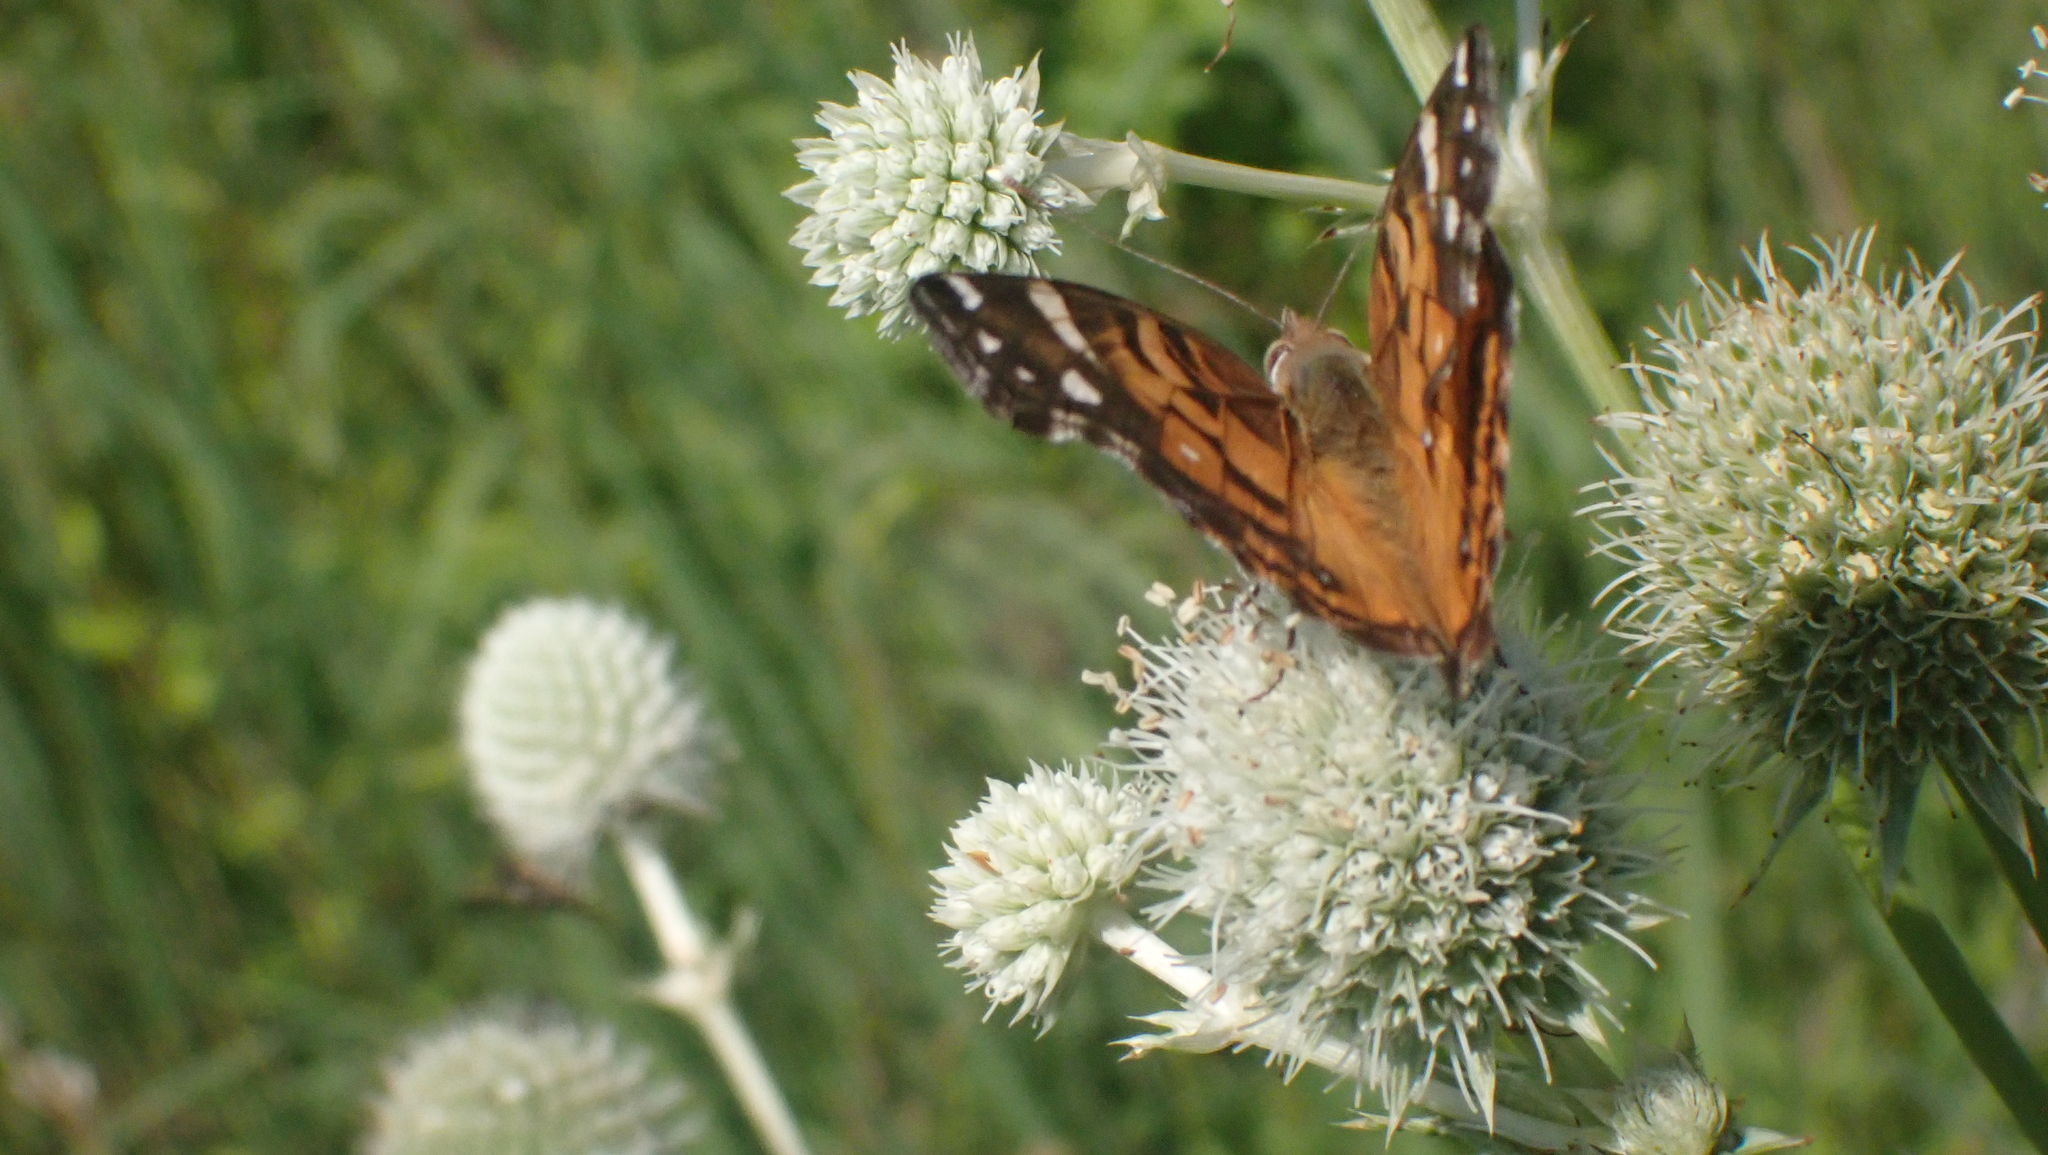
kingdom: Animalia
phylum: Arthropoda
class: Insecta
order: Lepidoptera
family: Nymphalidae
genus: Vanessa
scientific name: Vanessa virginiensis
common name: American lady
